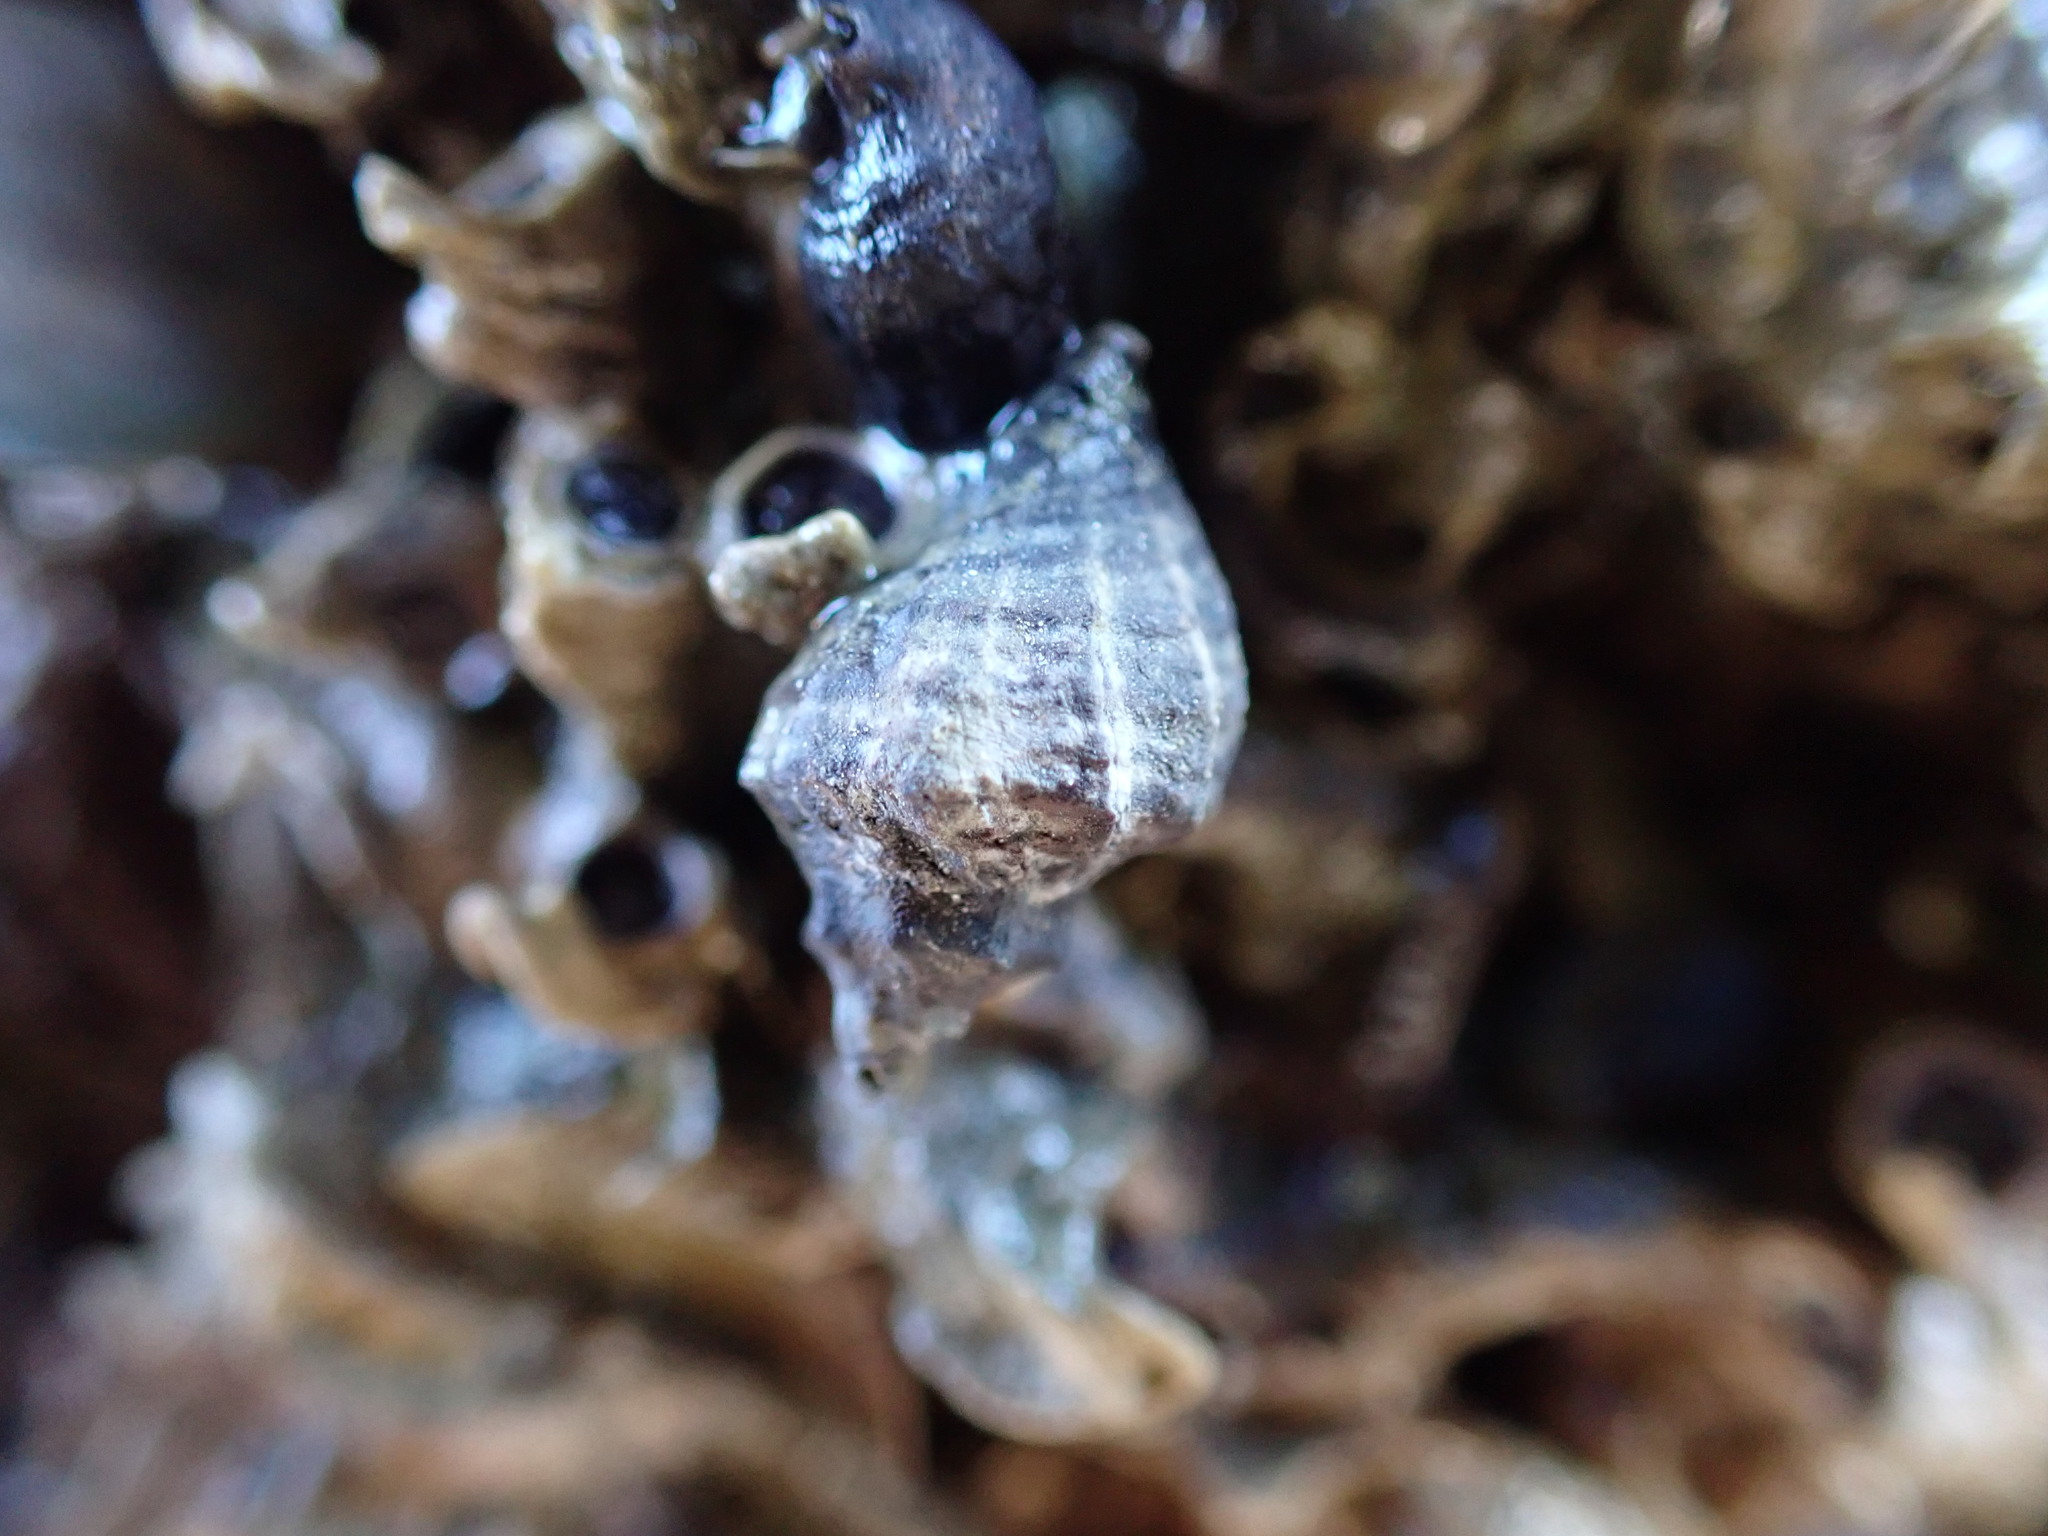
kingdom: Animalia
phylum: Mollusca
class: Gastropoda
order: Neogastropoda
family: Muricidae
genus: Haustrum
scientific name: Haustrum albomarginatum
